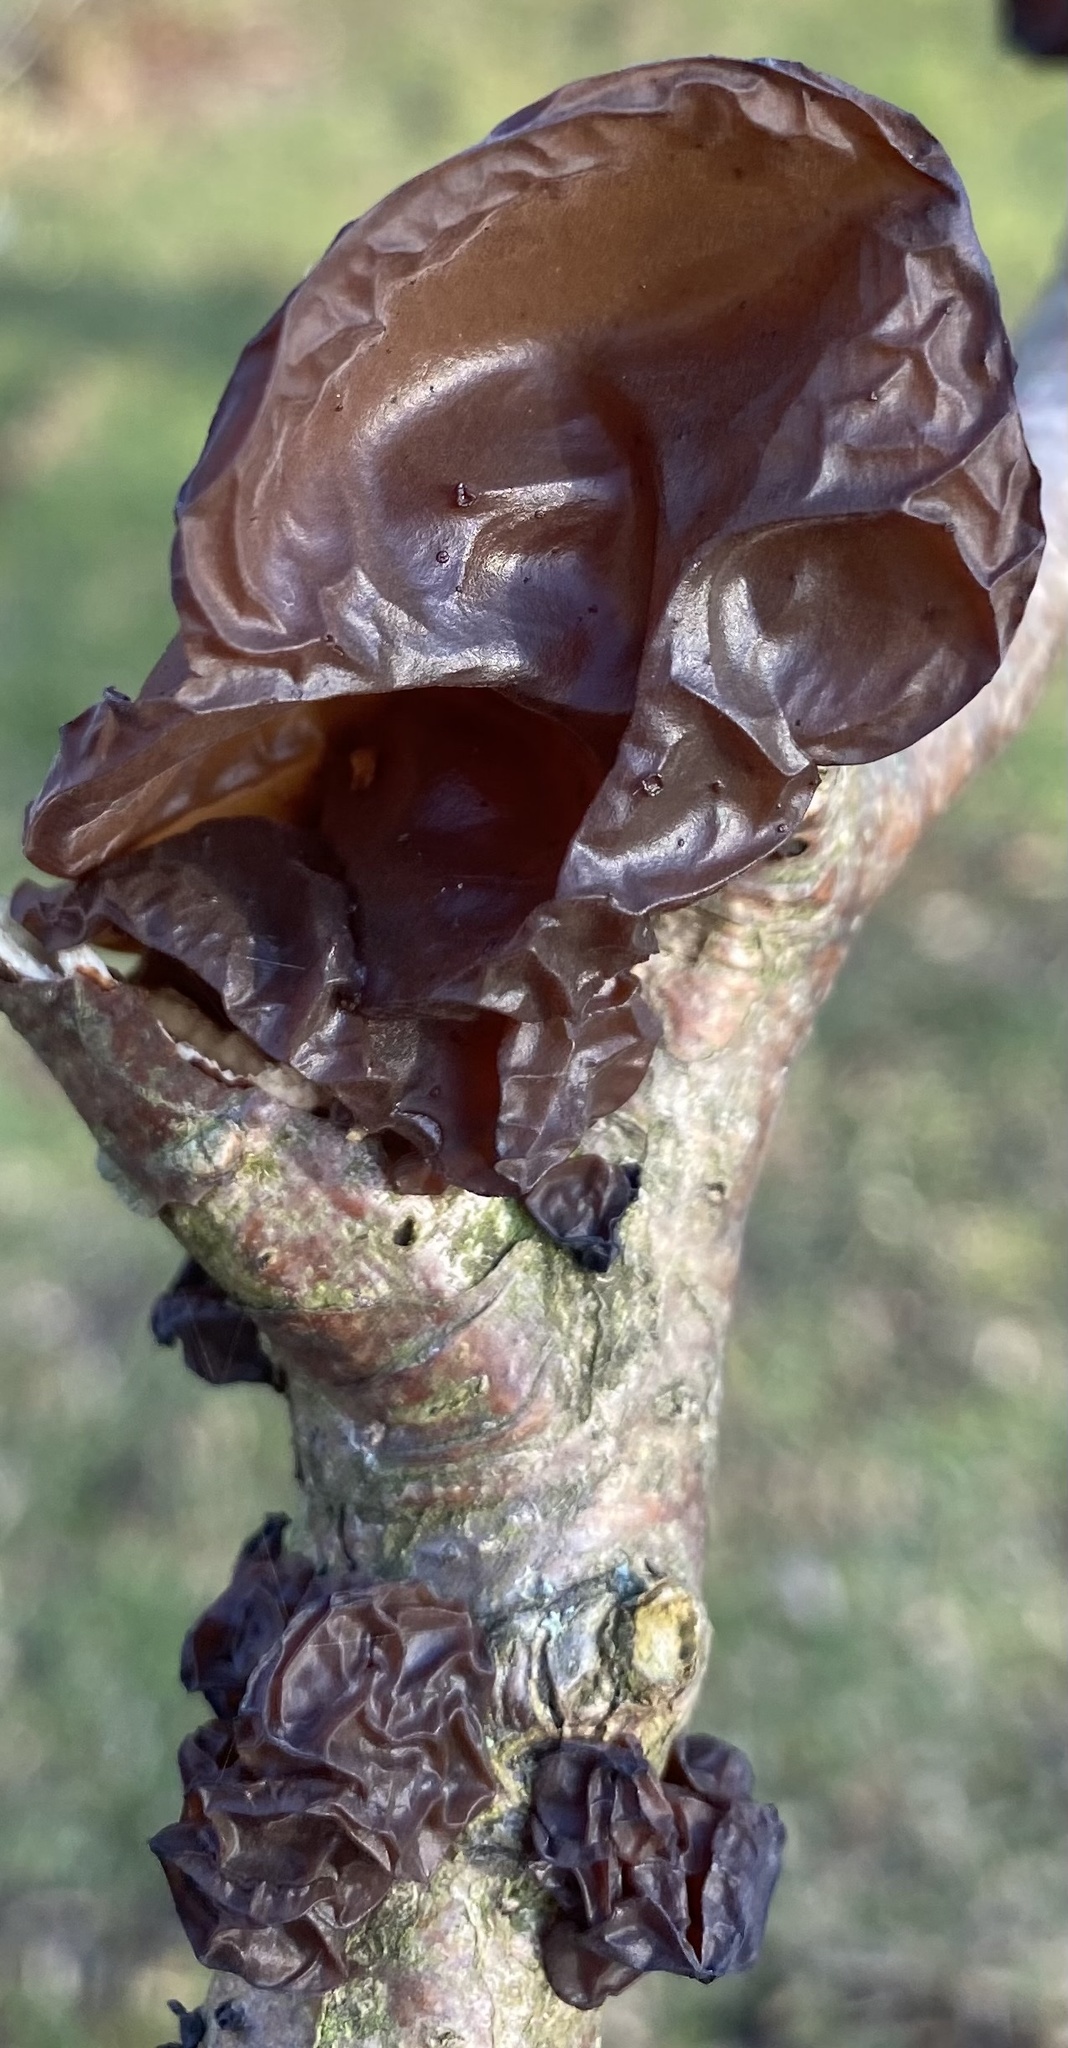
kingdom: Fungi
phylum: Basidiomycota
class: Agaricomycetes
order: Auriculariales
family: Auriculariaceae
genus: Exidia
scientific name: Exidia
